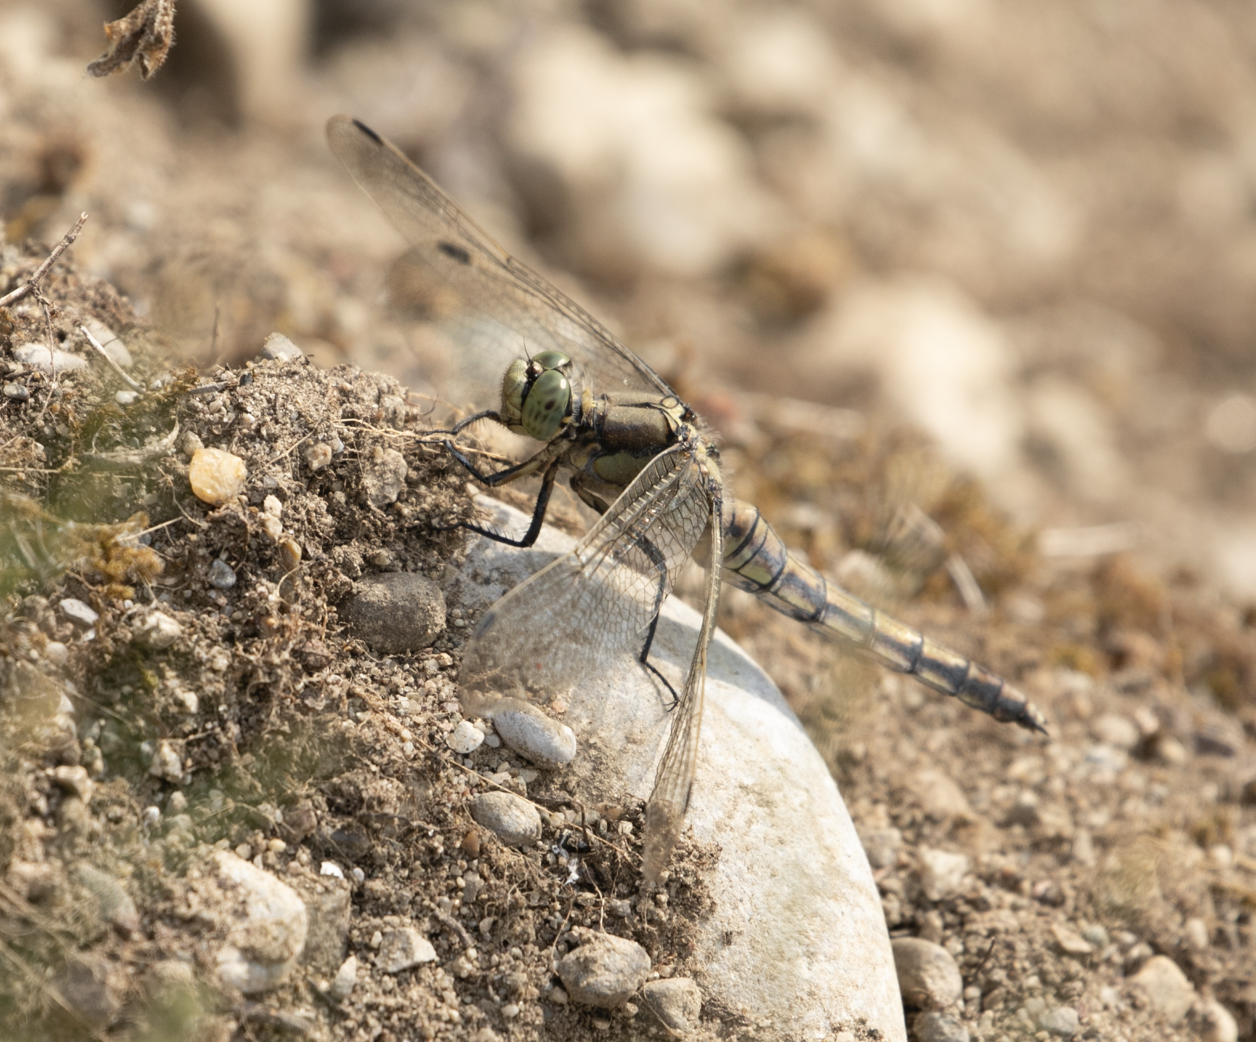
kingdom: Animalia
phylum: Arthropoda
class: Insecta
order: Odonata
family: Libellulidae
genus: Orthetrum
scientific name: Orthetrum cancellatum
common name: Black-tailed skimmer
